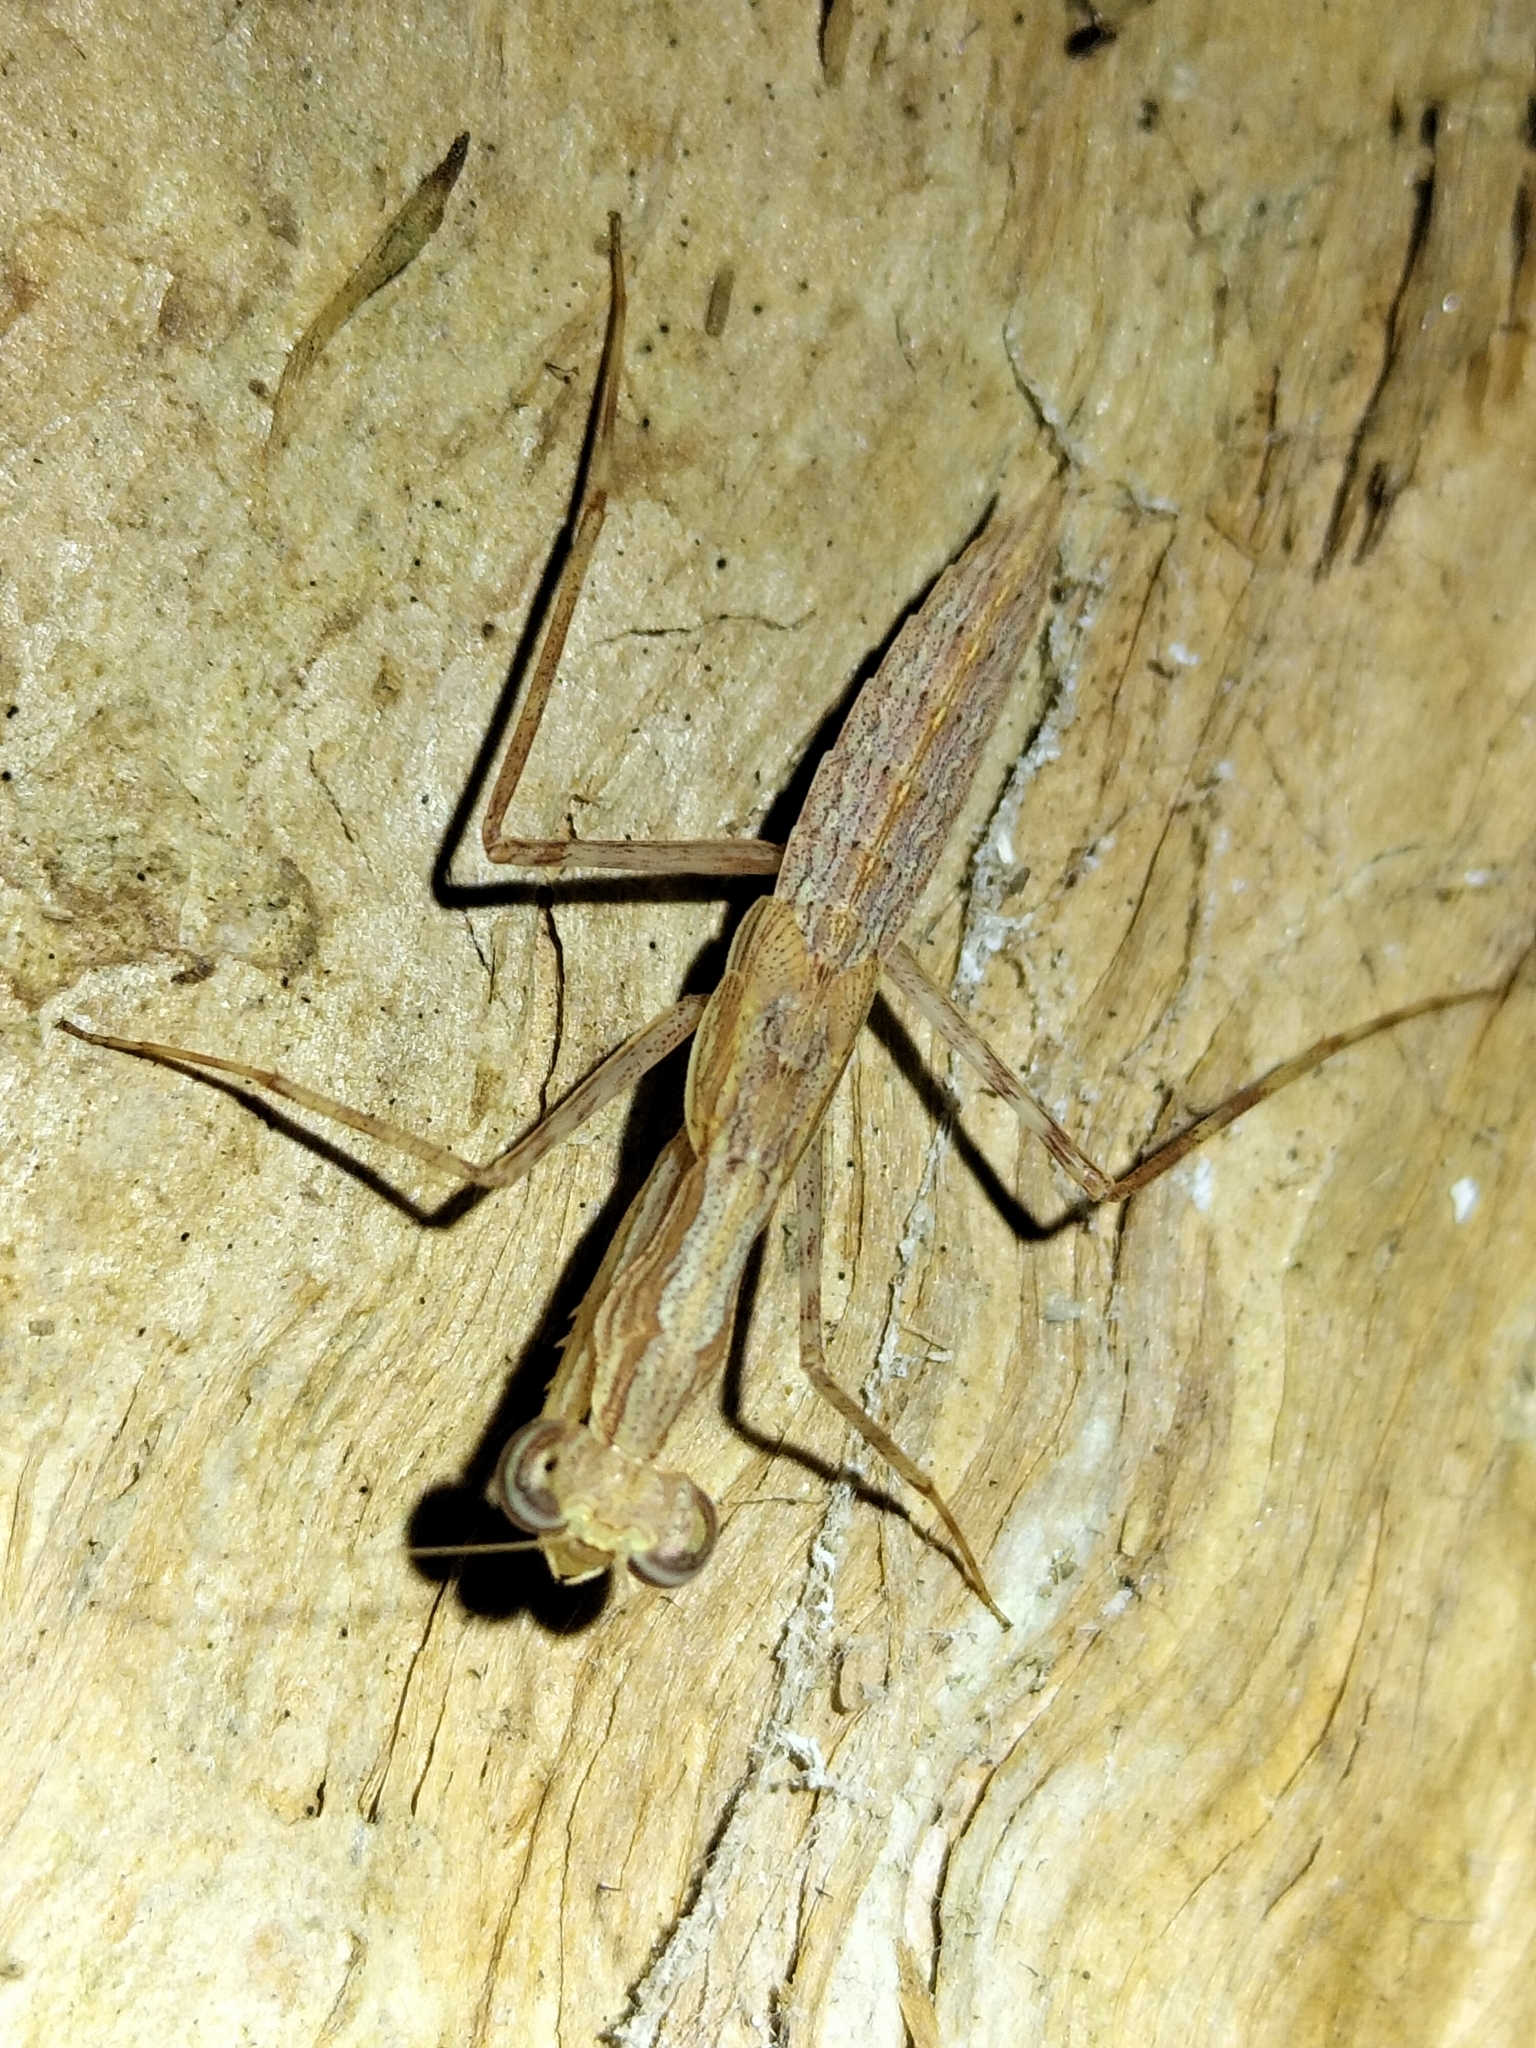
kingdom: Animalia
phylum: Arthropoda
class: Insecta
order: Mantodea
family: Nanomantidae
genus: Ima
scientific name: Ima fusca
